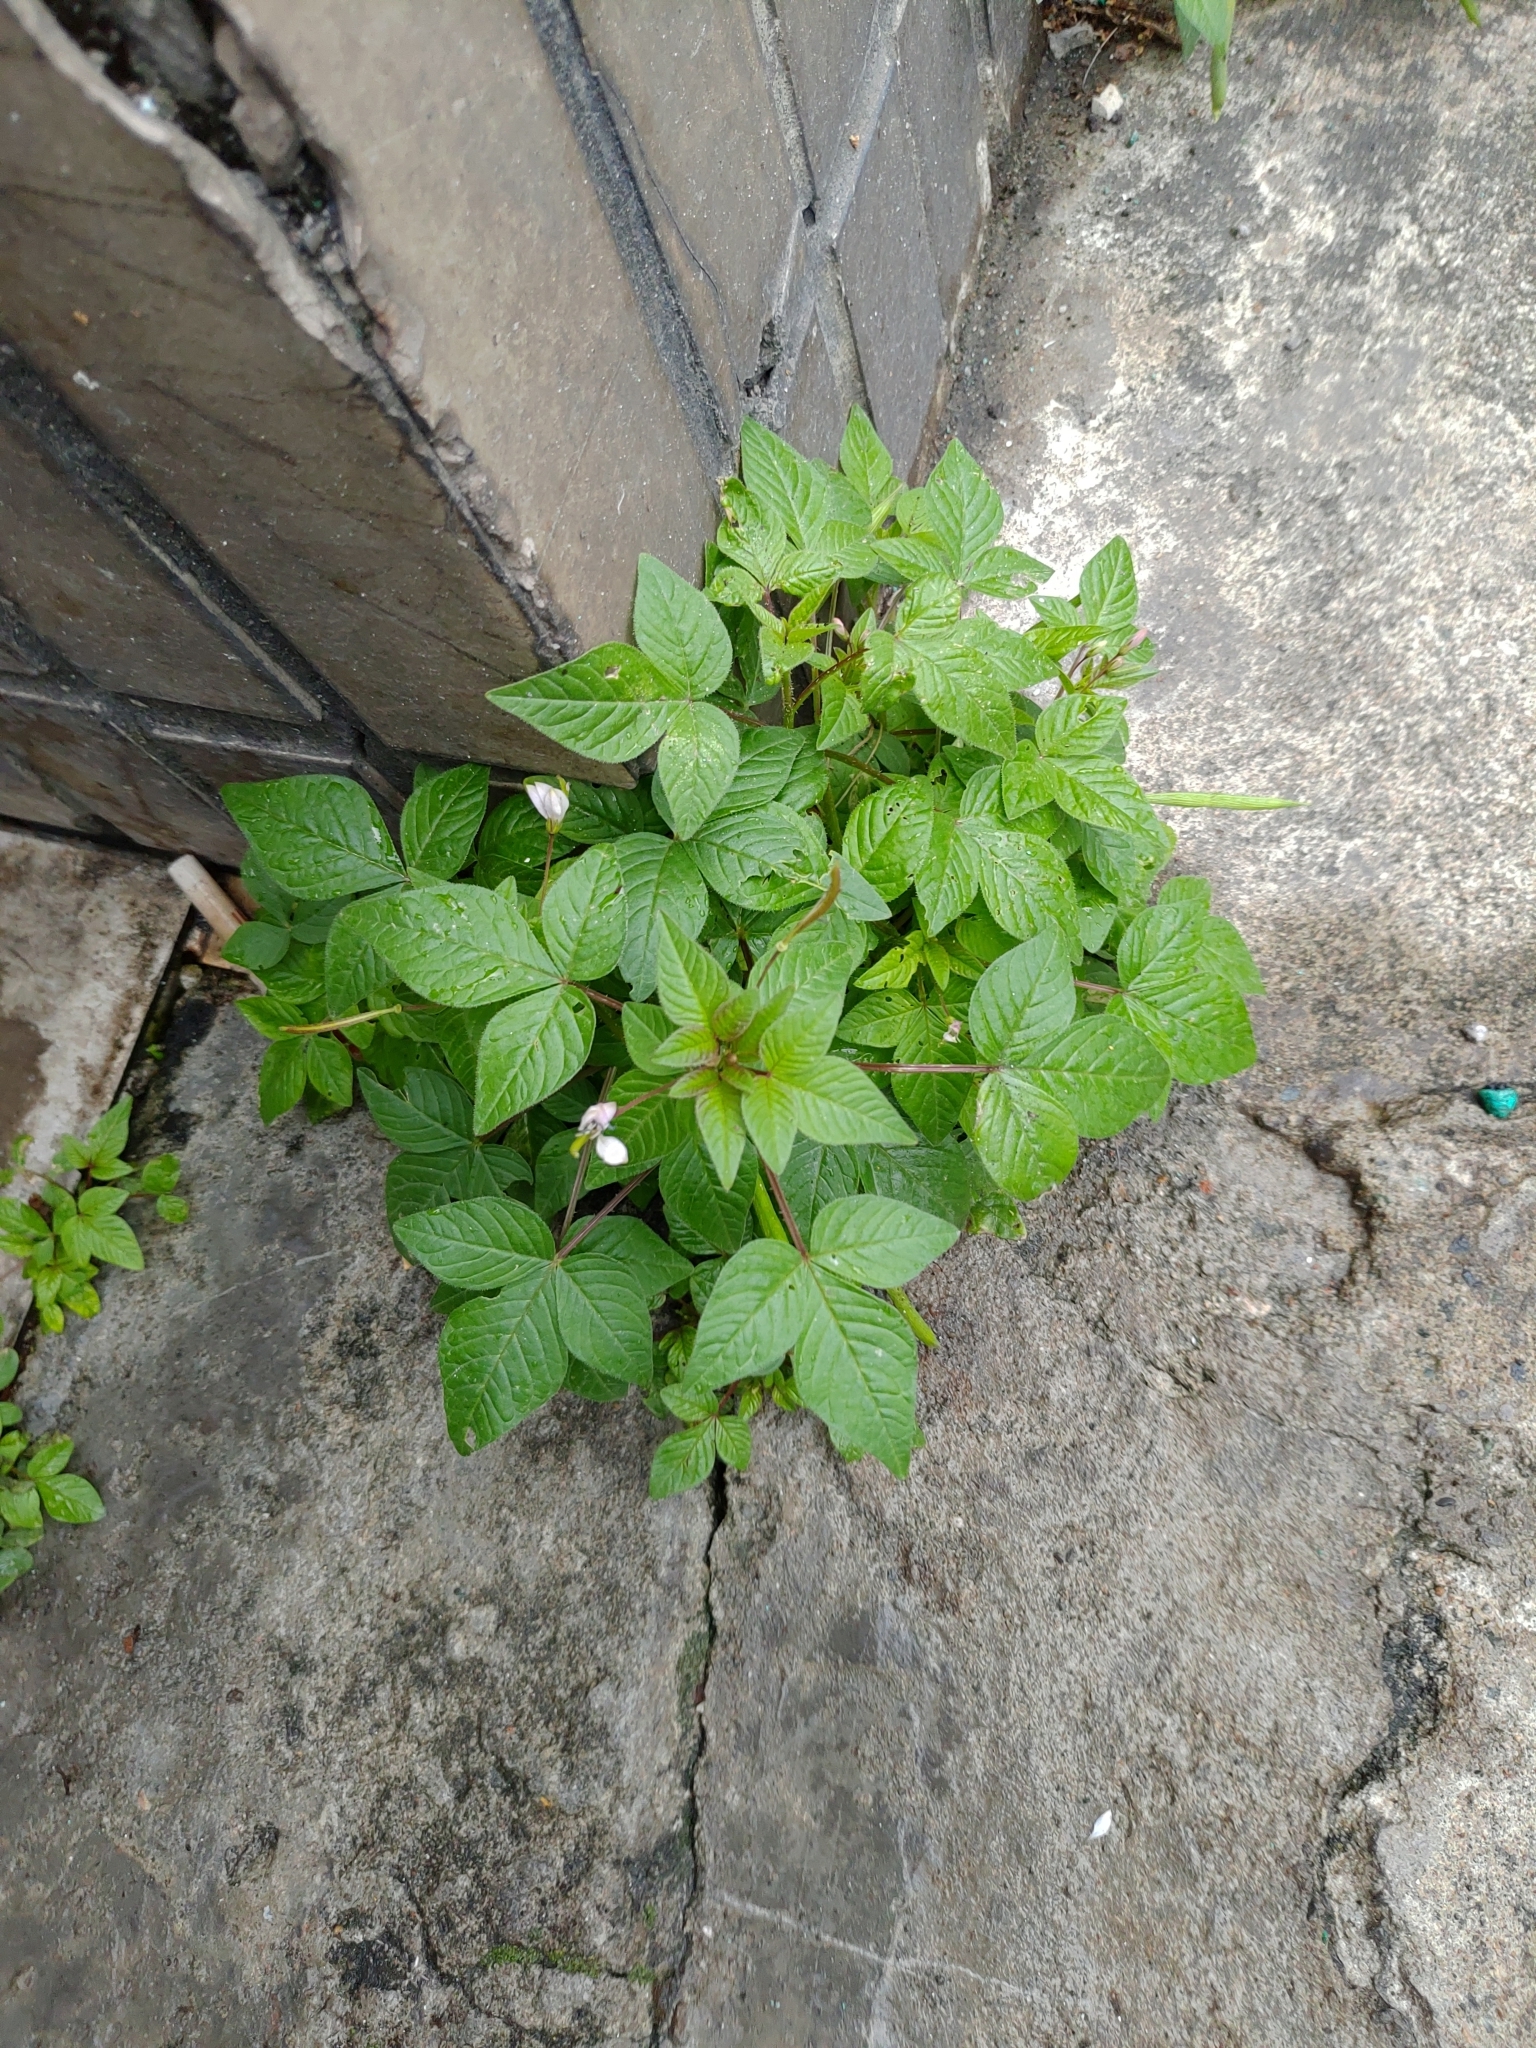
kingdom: Plantae
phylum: Tracheophyta
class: Magnoliopsida
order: Brassicales
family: Cleomaceae
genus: Sieruela
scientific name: Sieruela rutidosperma
